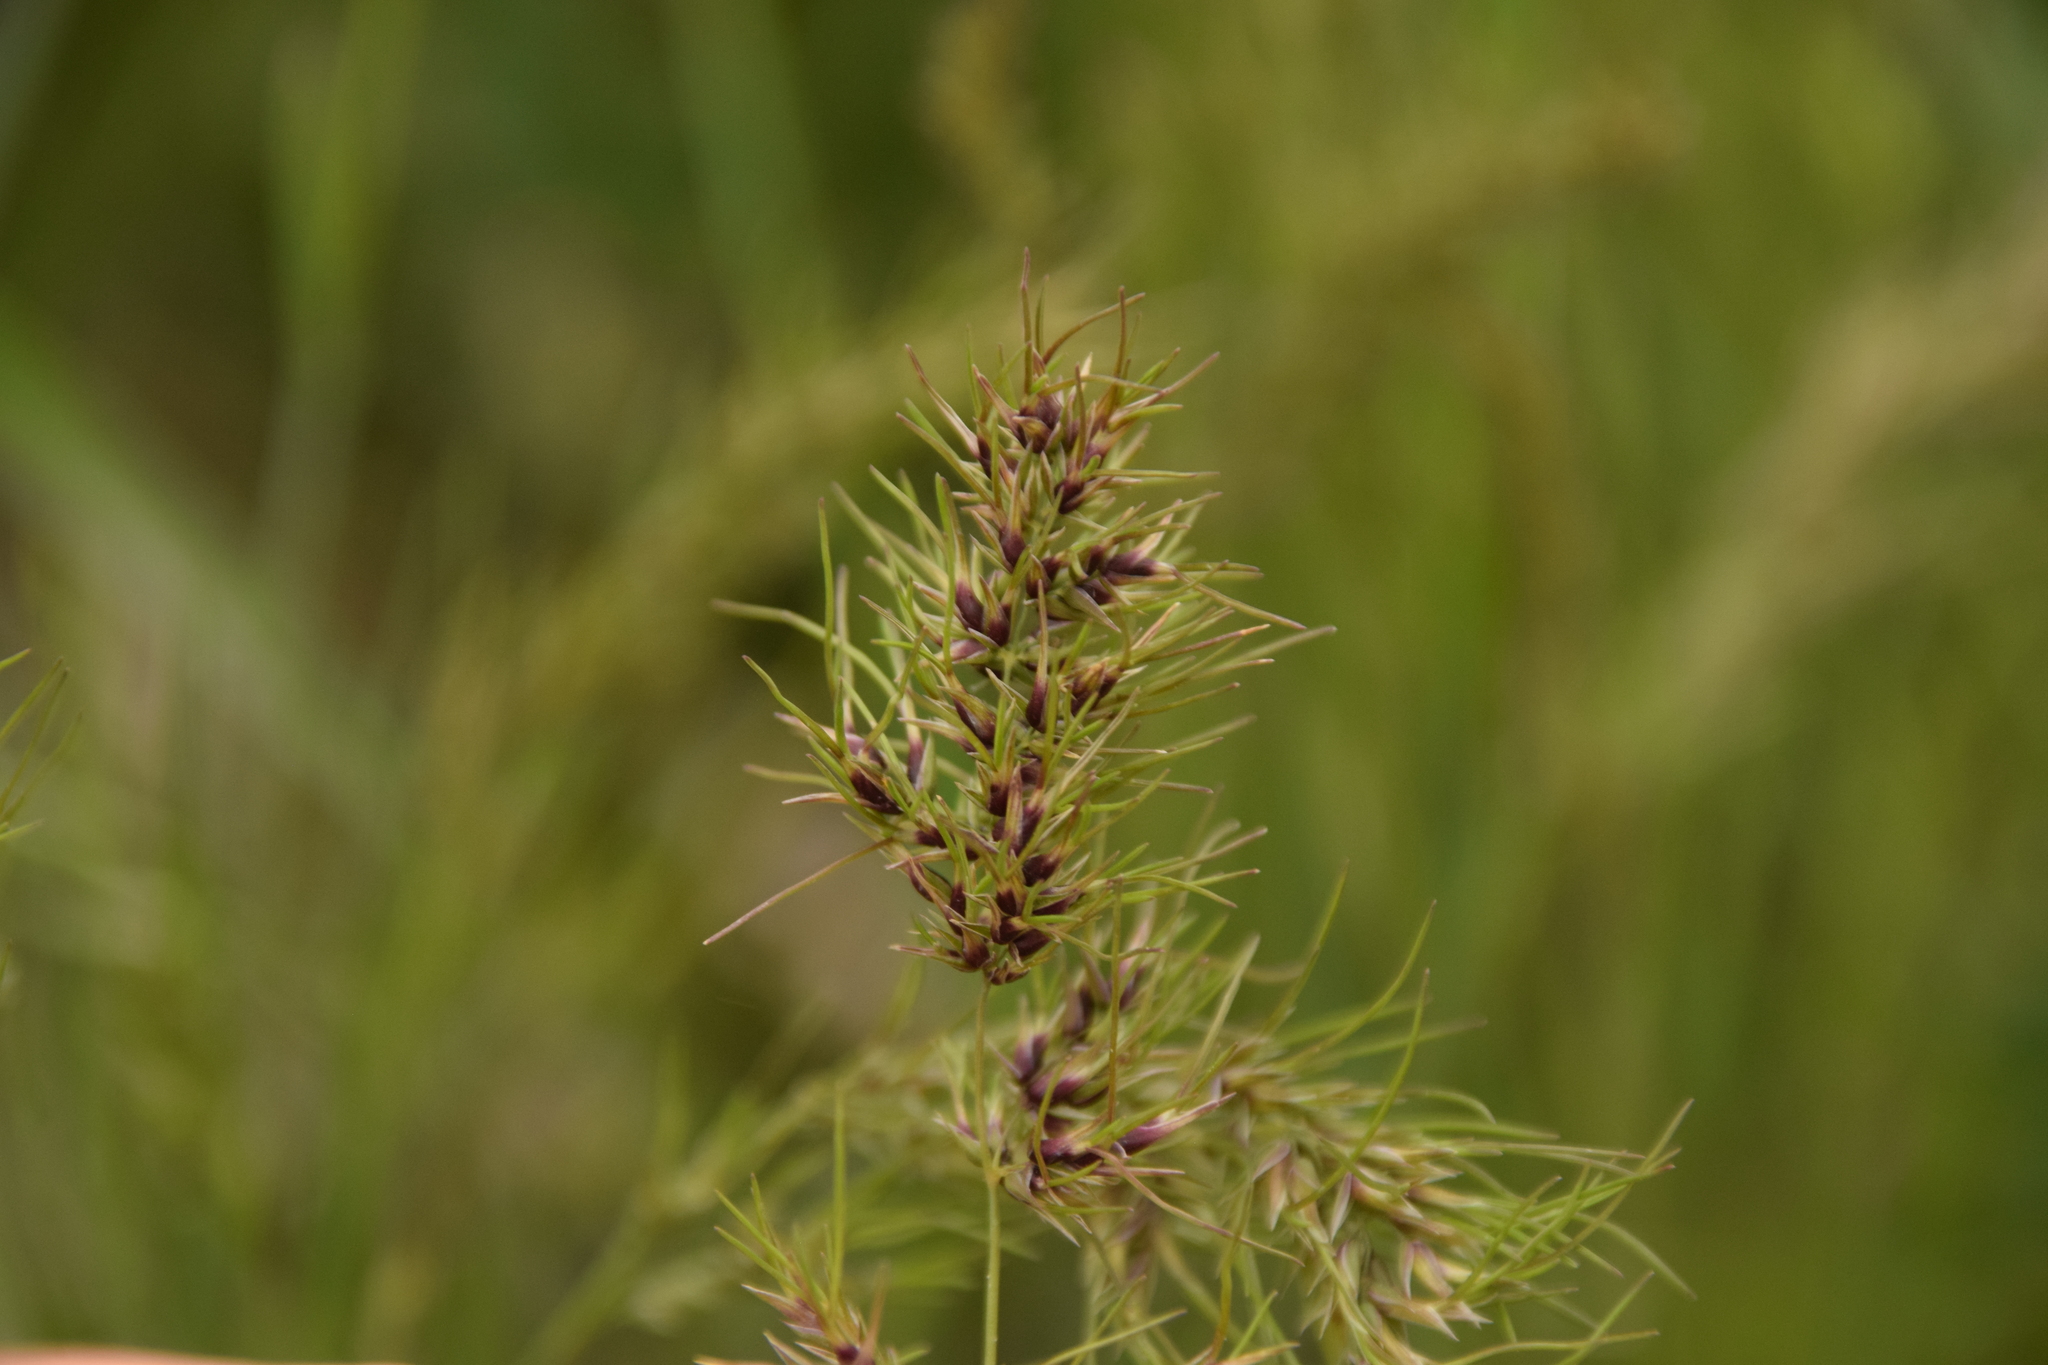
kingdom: Plantae
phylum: Tracheophyta
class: Liliopsida
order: Poales
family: Poaceae
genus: Poa
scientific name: Poa bulbosa
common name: Bulbous bluegrass
